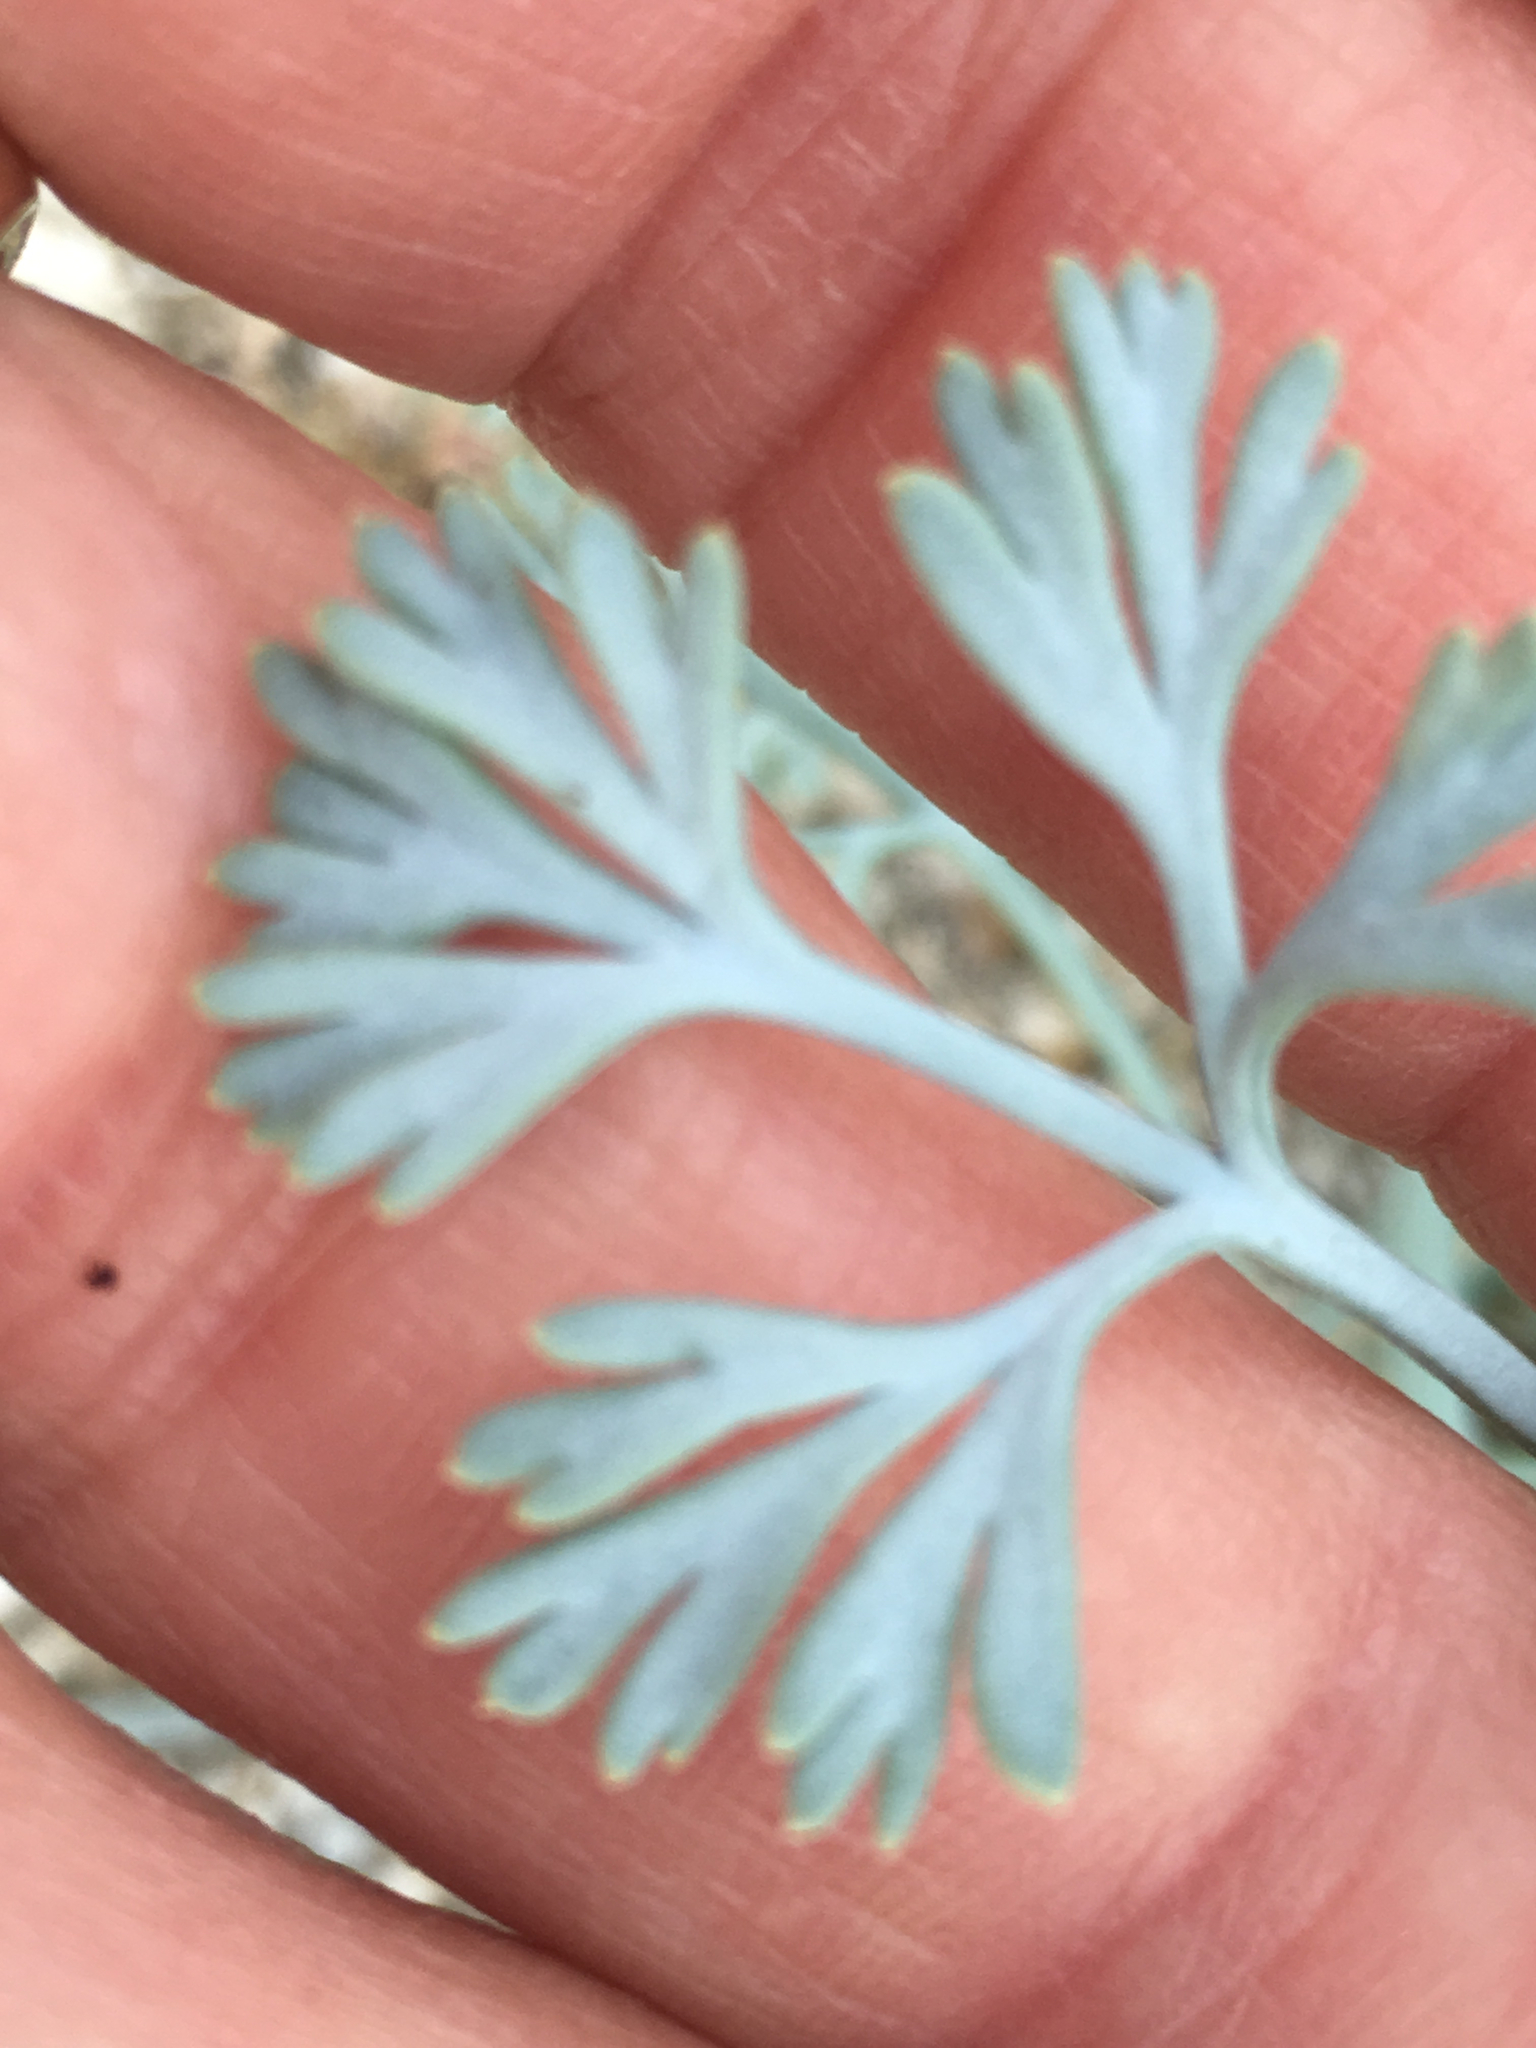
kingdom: Plantae
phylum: Tracheophyta
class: Magnoliopsida
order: Ranunculales
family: Papaveraceae
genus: Eschscholzia
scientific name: Eschscholzia minutiflora
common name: Small-flower california-poppy
